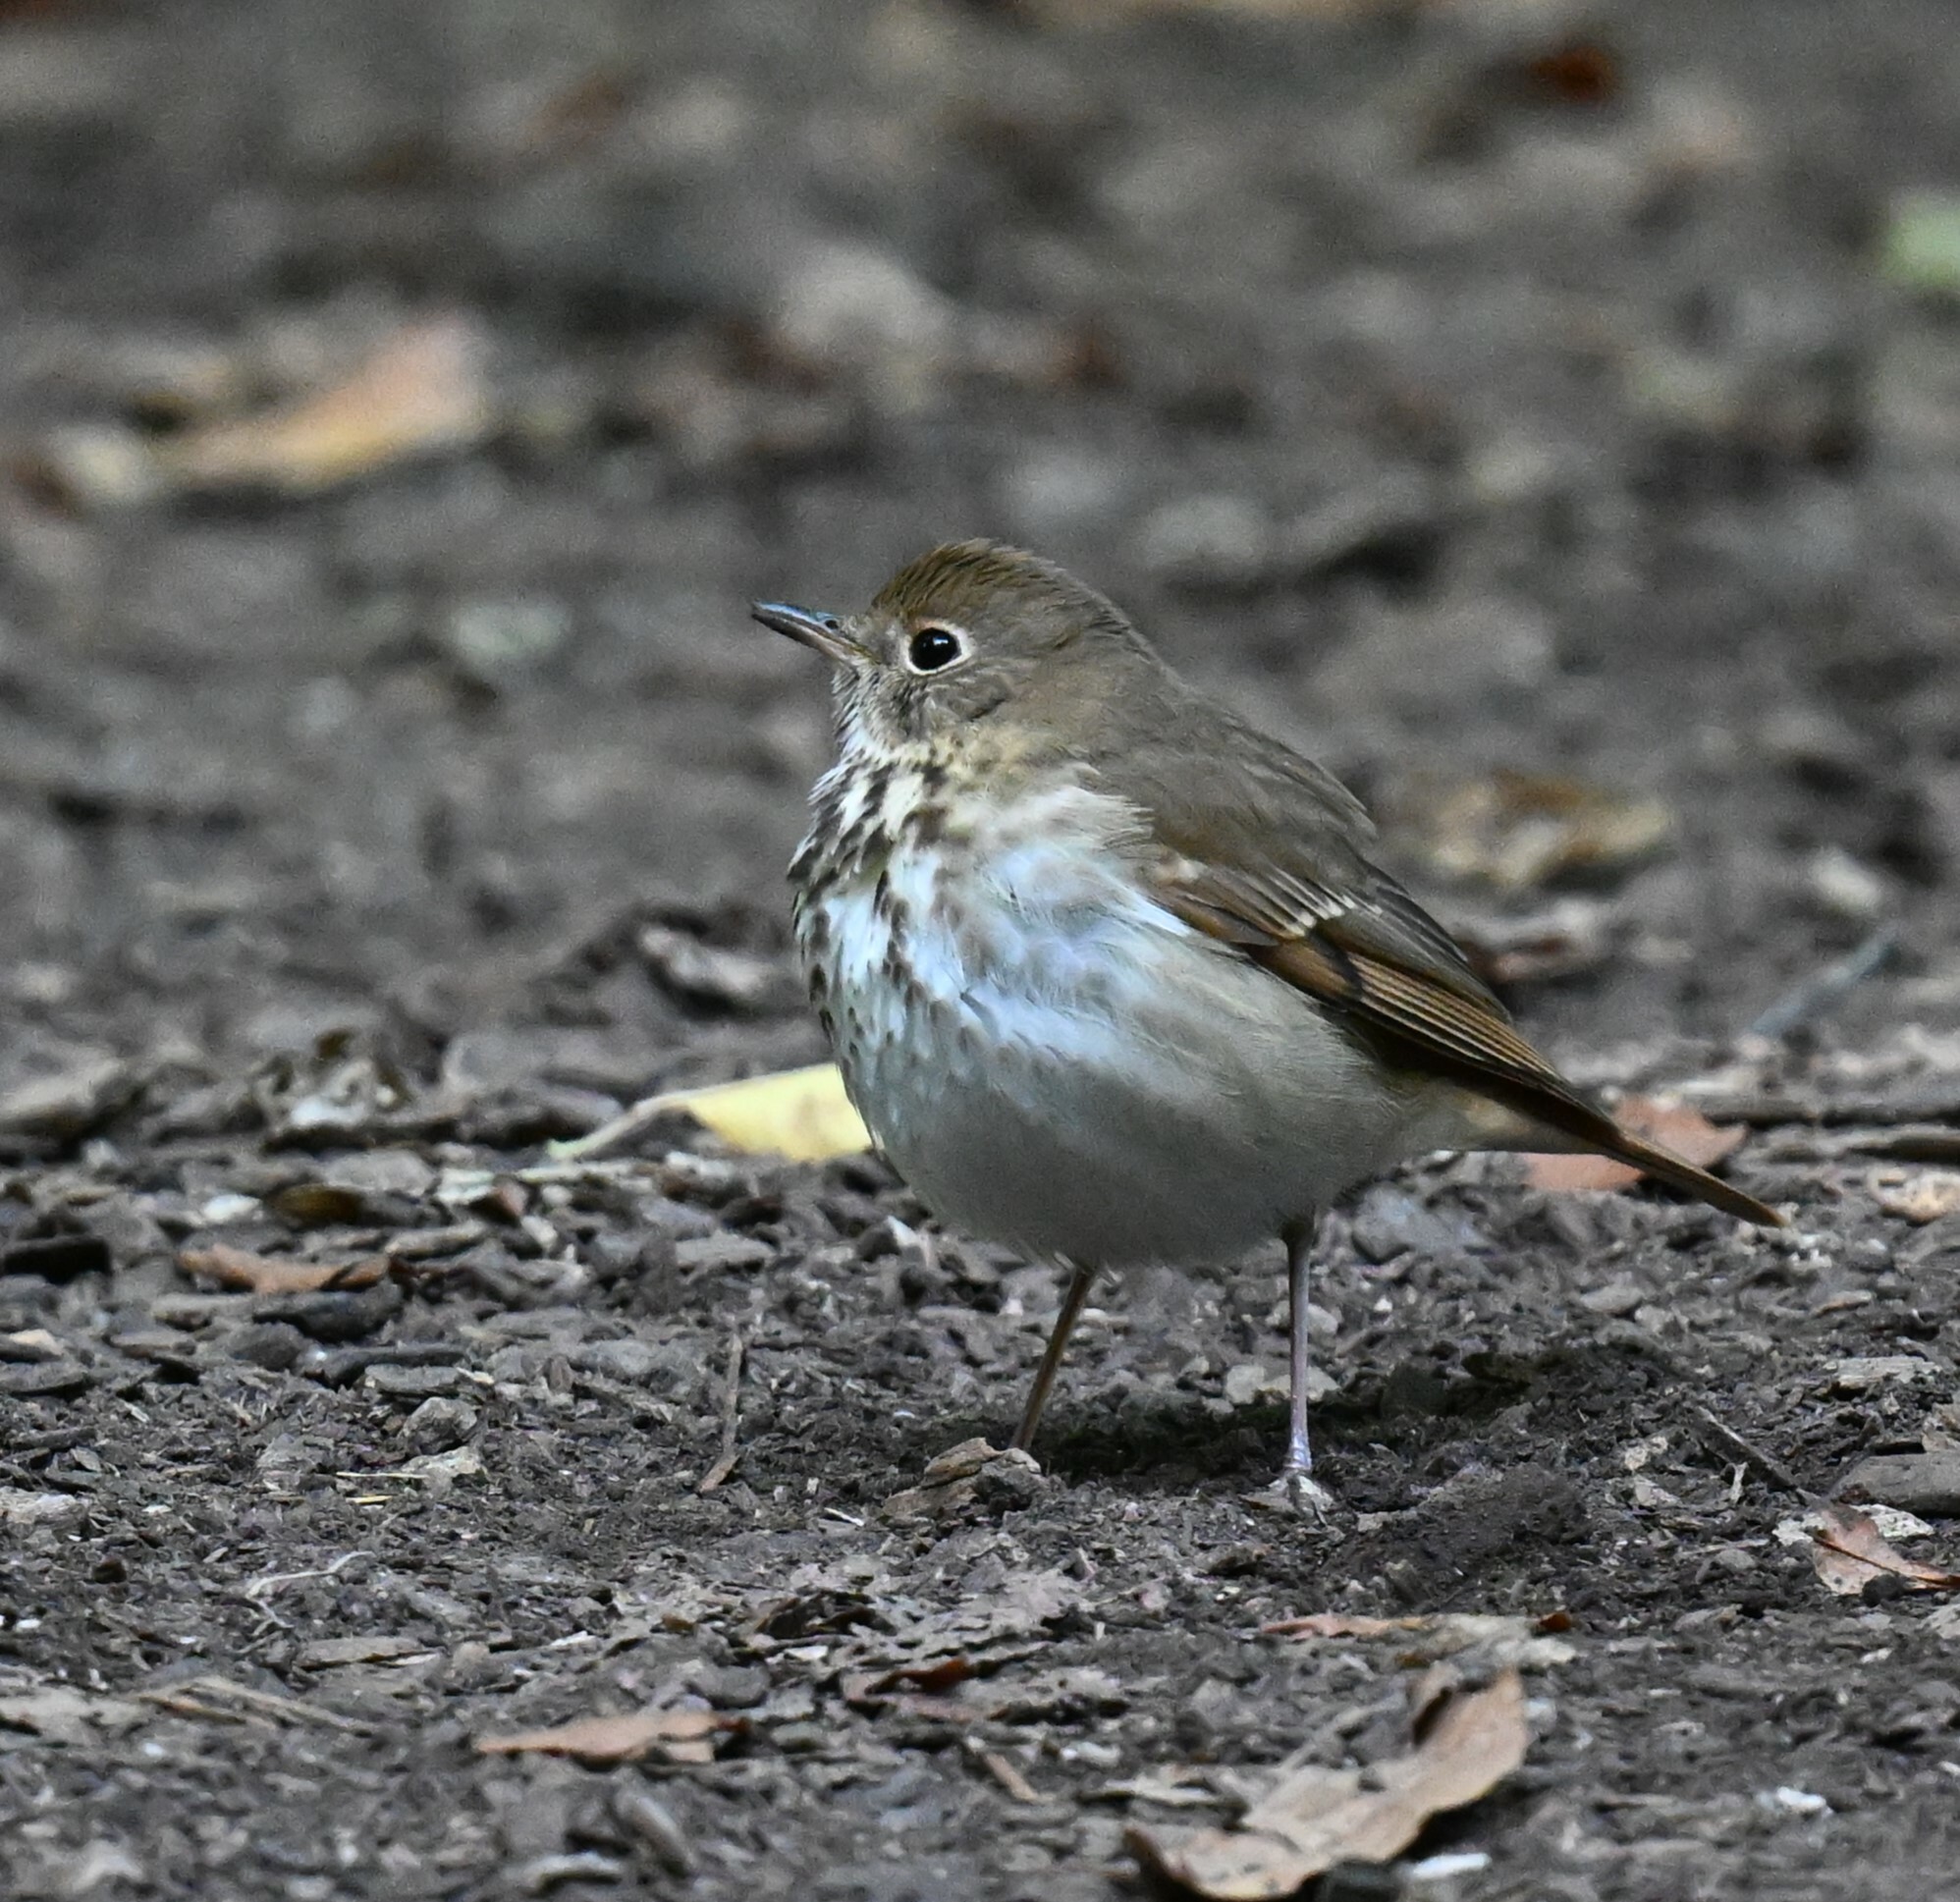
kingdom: Animalia
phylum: Chordata
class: Aves
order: Passeriformes
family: Turdidae
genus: Catharus
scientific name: Catharus guttatus
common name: Hermit thrush
